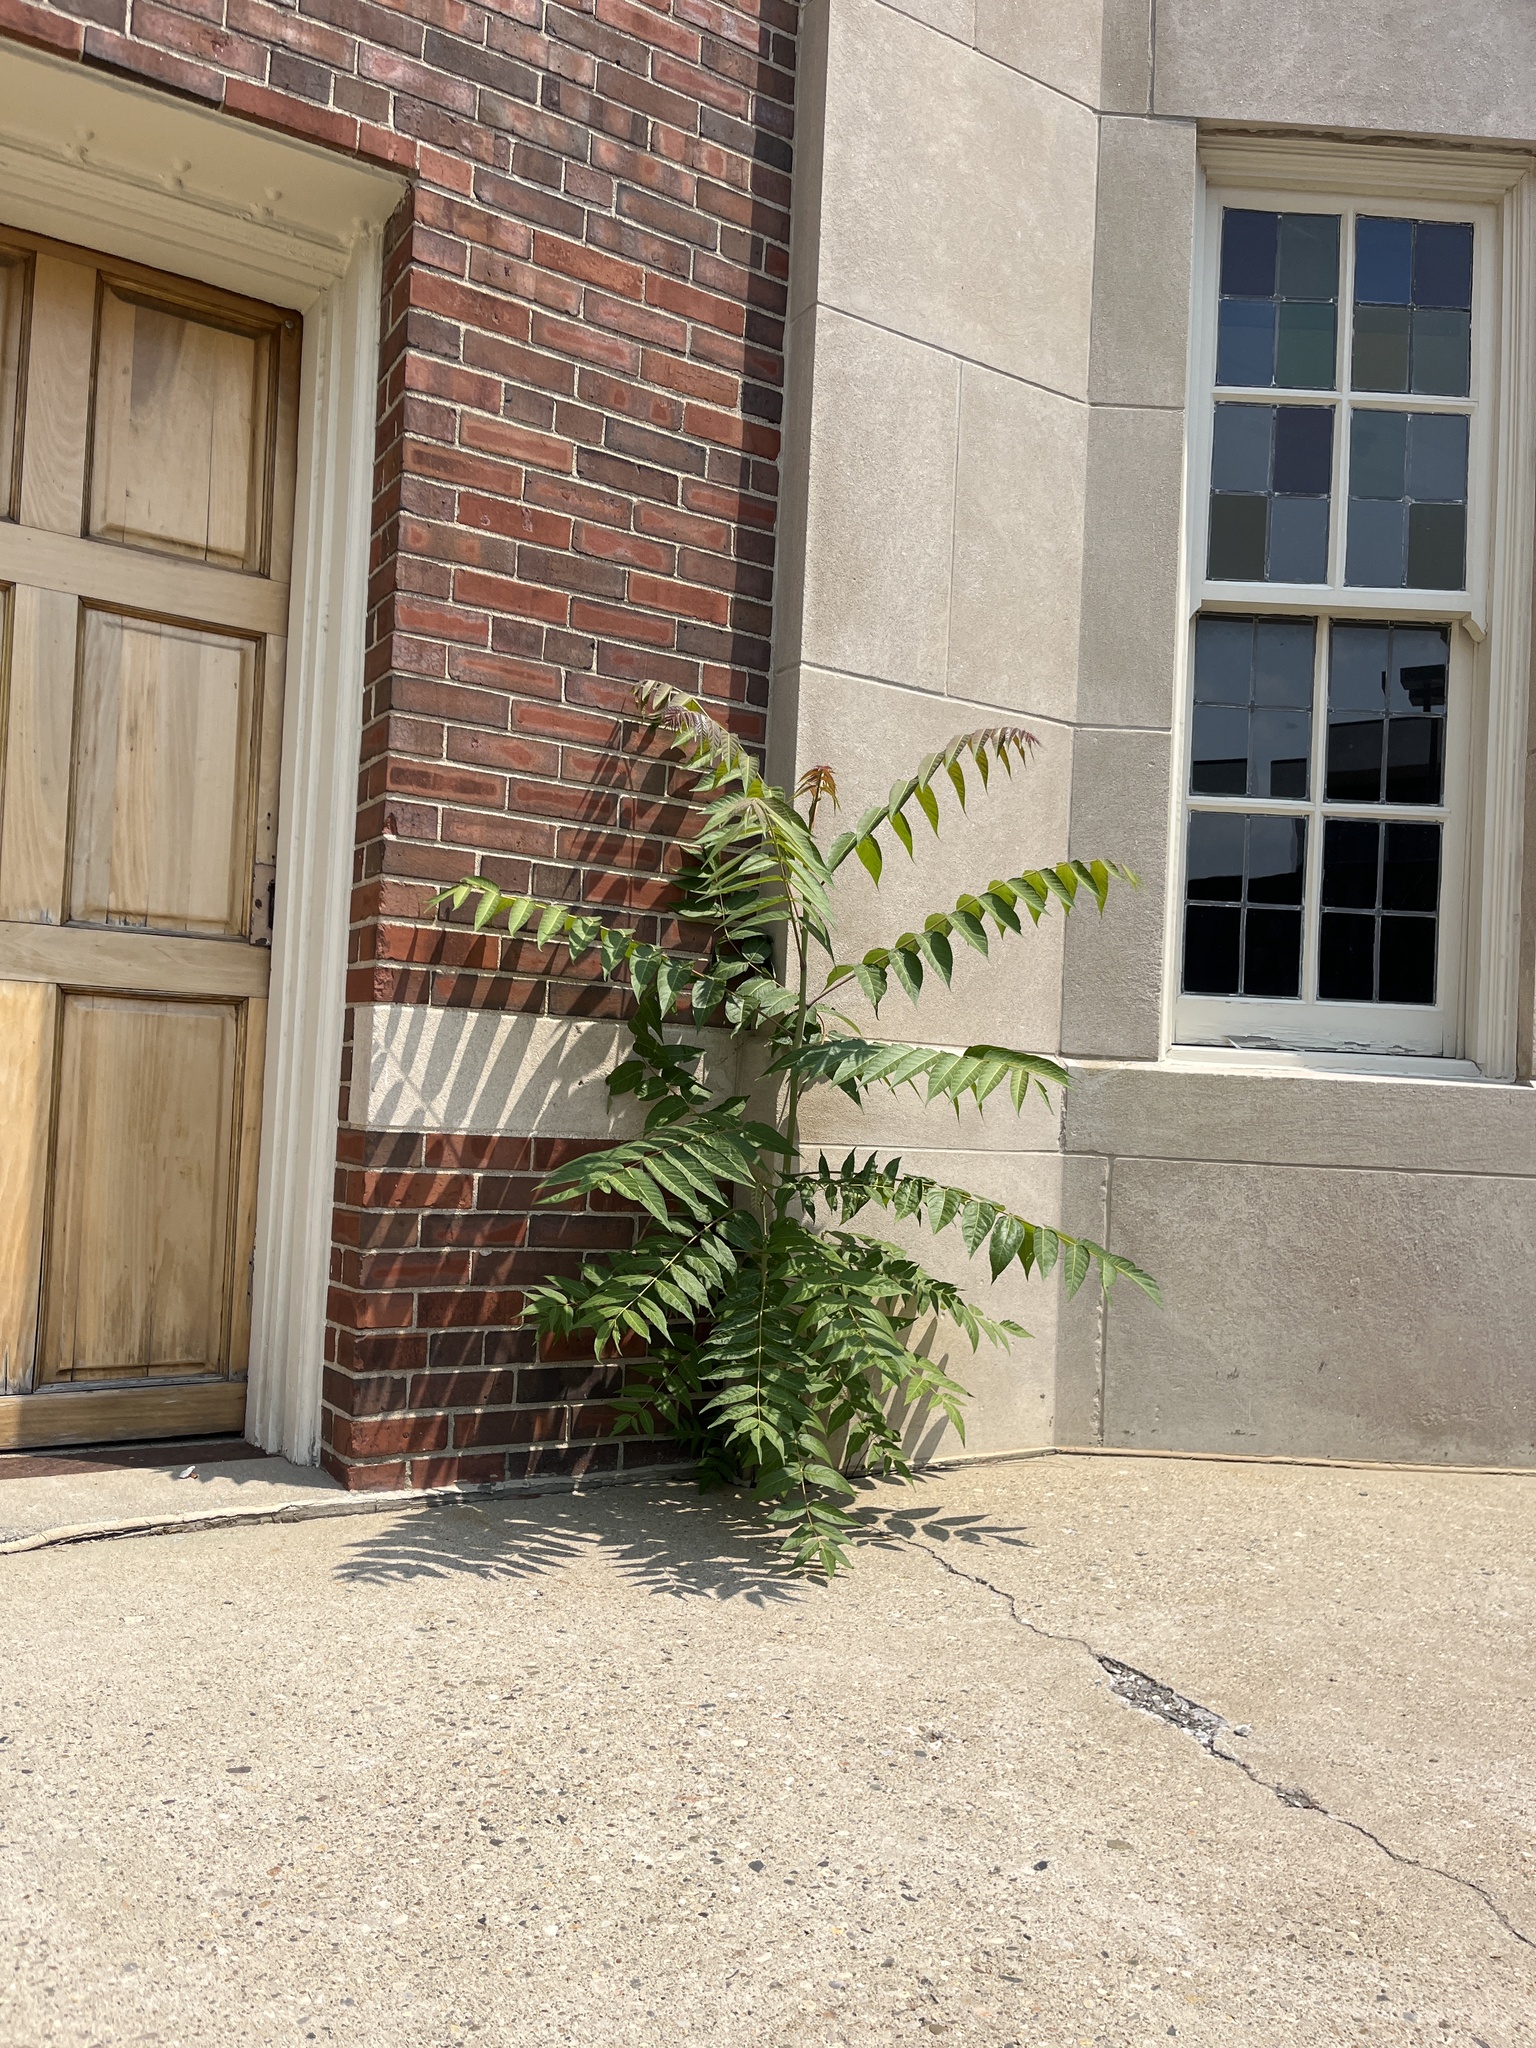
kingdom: Plantae
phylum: Tracheophyta
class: Magnoliopsida
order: Sapindales
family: Simaroubaceae
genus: Ailanthus
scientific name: Ailanthus altissima
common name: Tree-of-heaven
